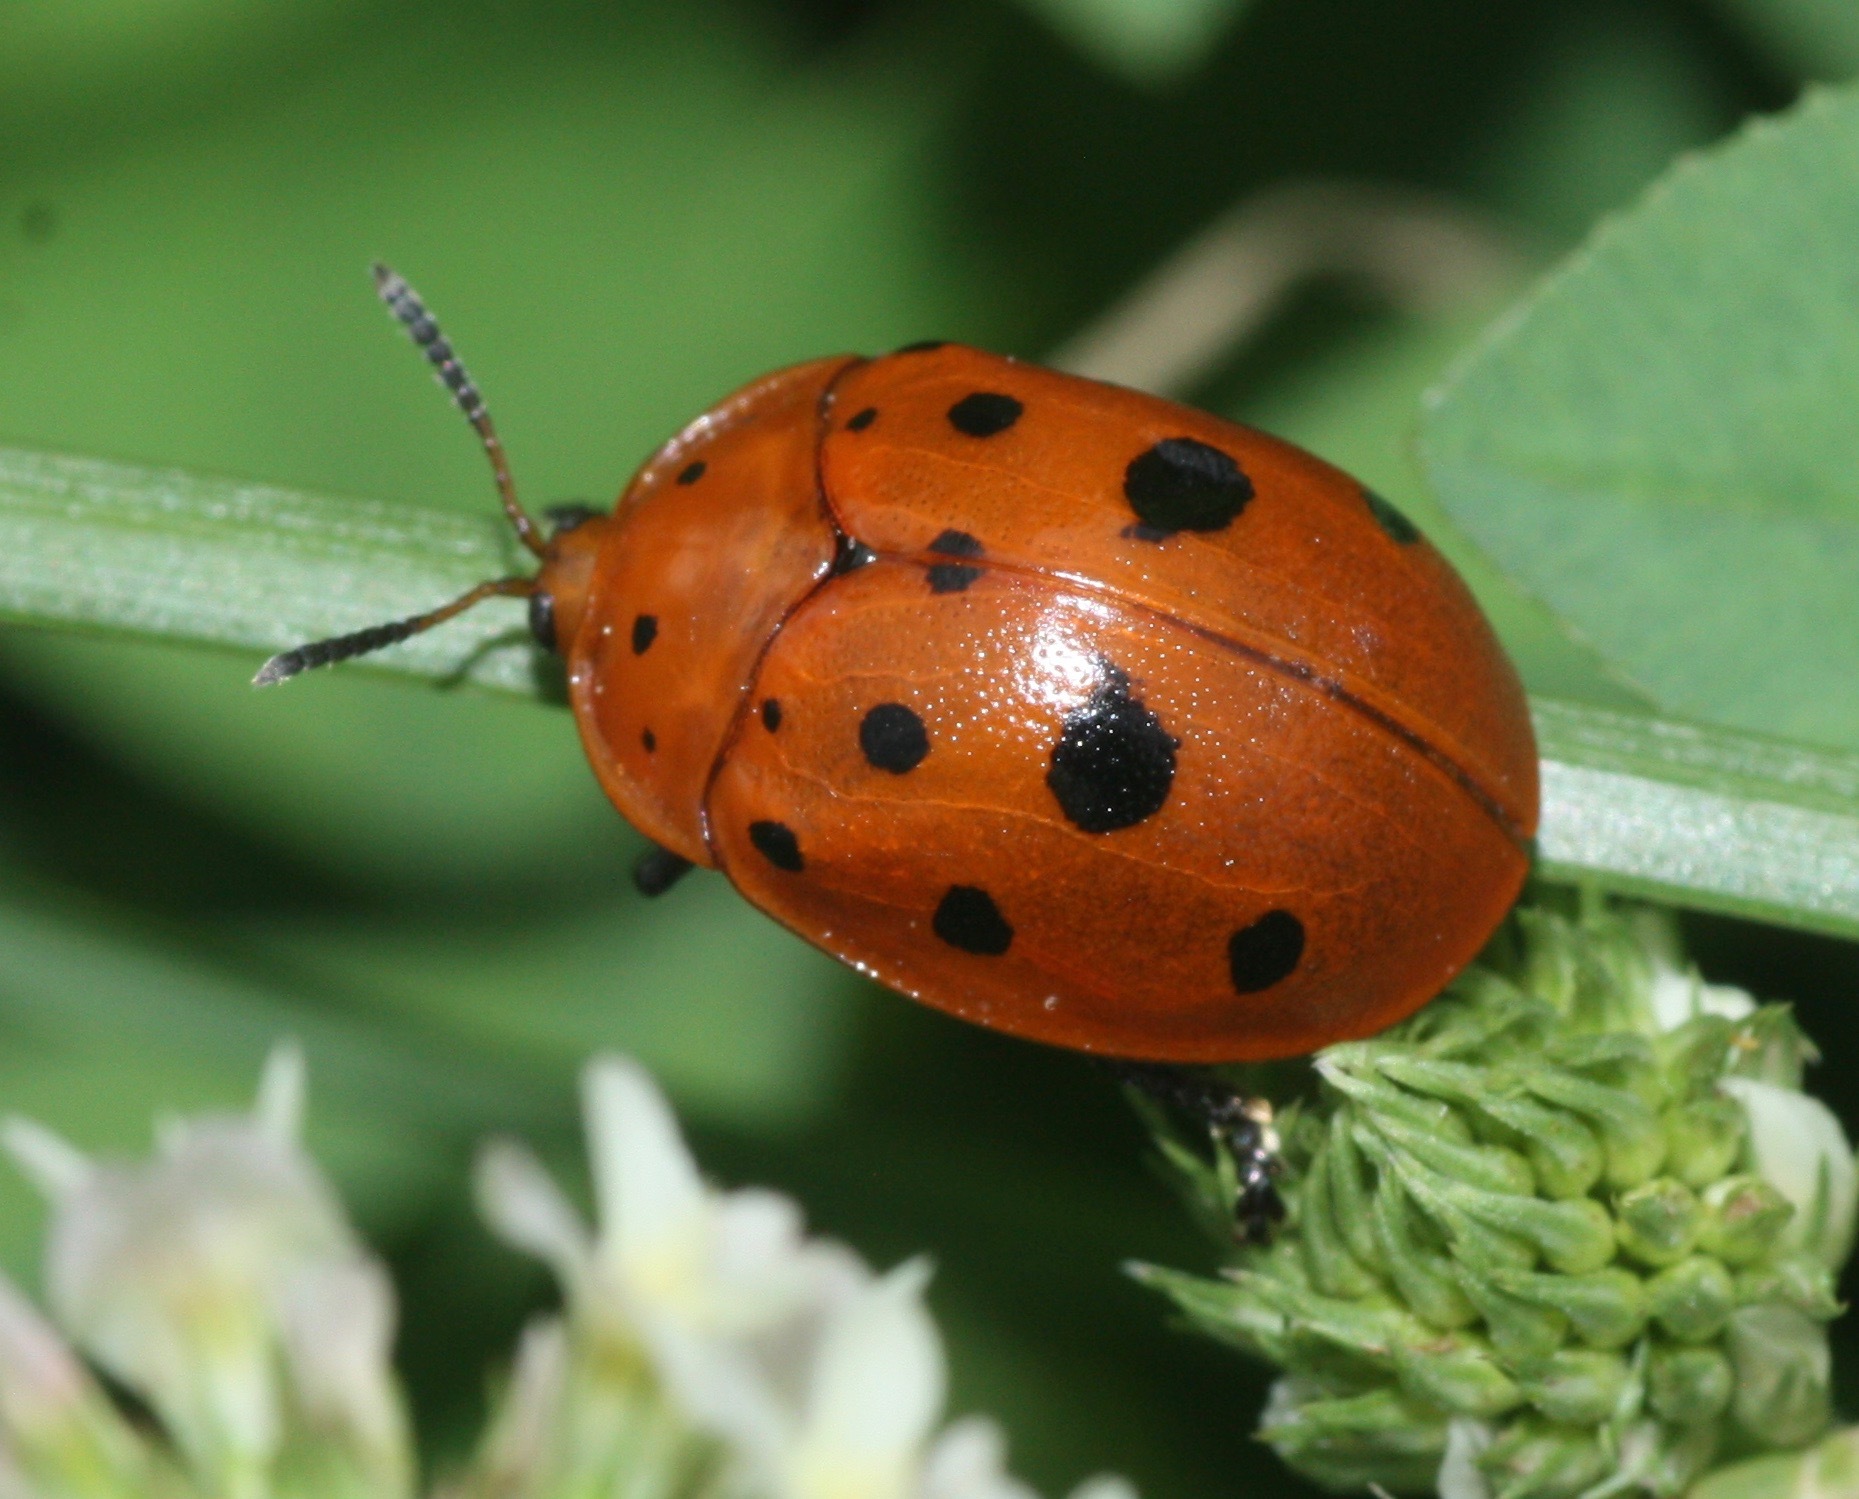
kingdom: Animalia
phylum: Arthropoda
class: Insecta
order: Coleoptera
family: Chrysomelidae
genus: Chelymorpha
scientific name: Chelymorpha cassidea
